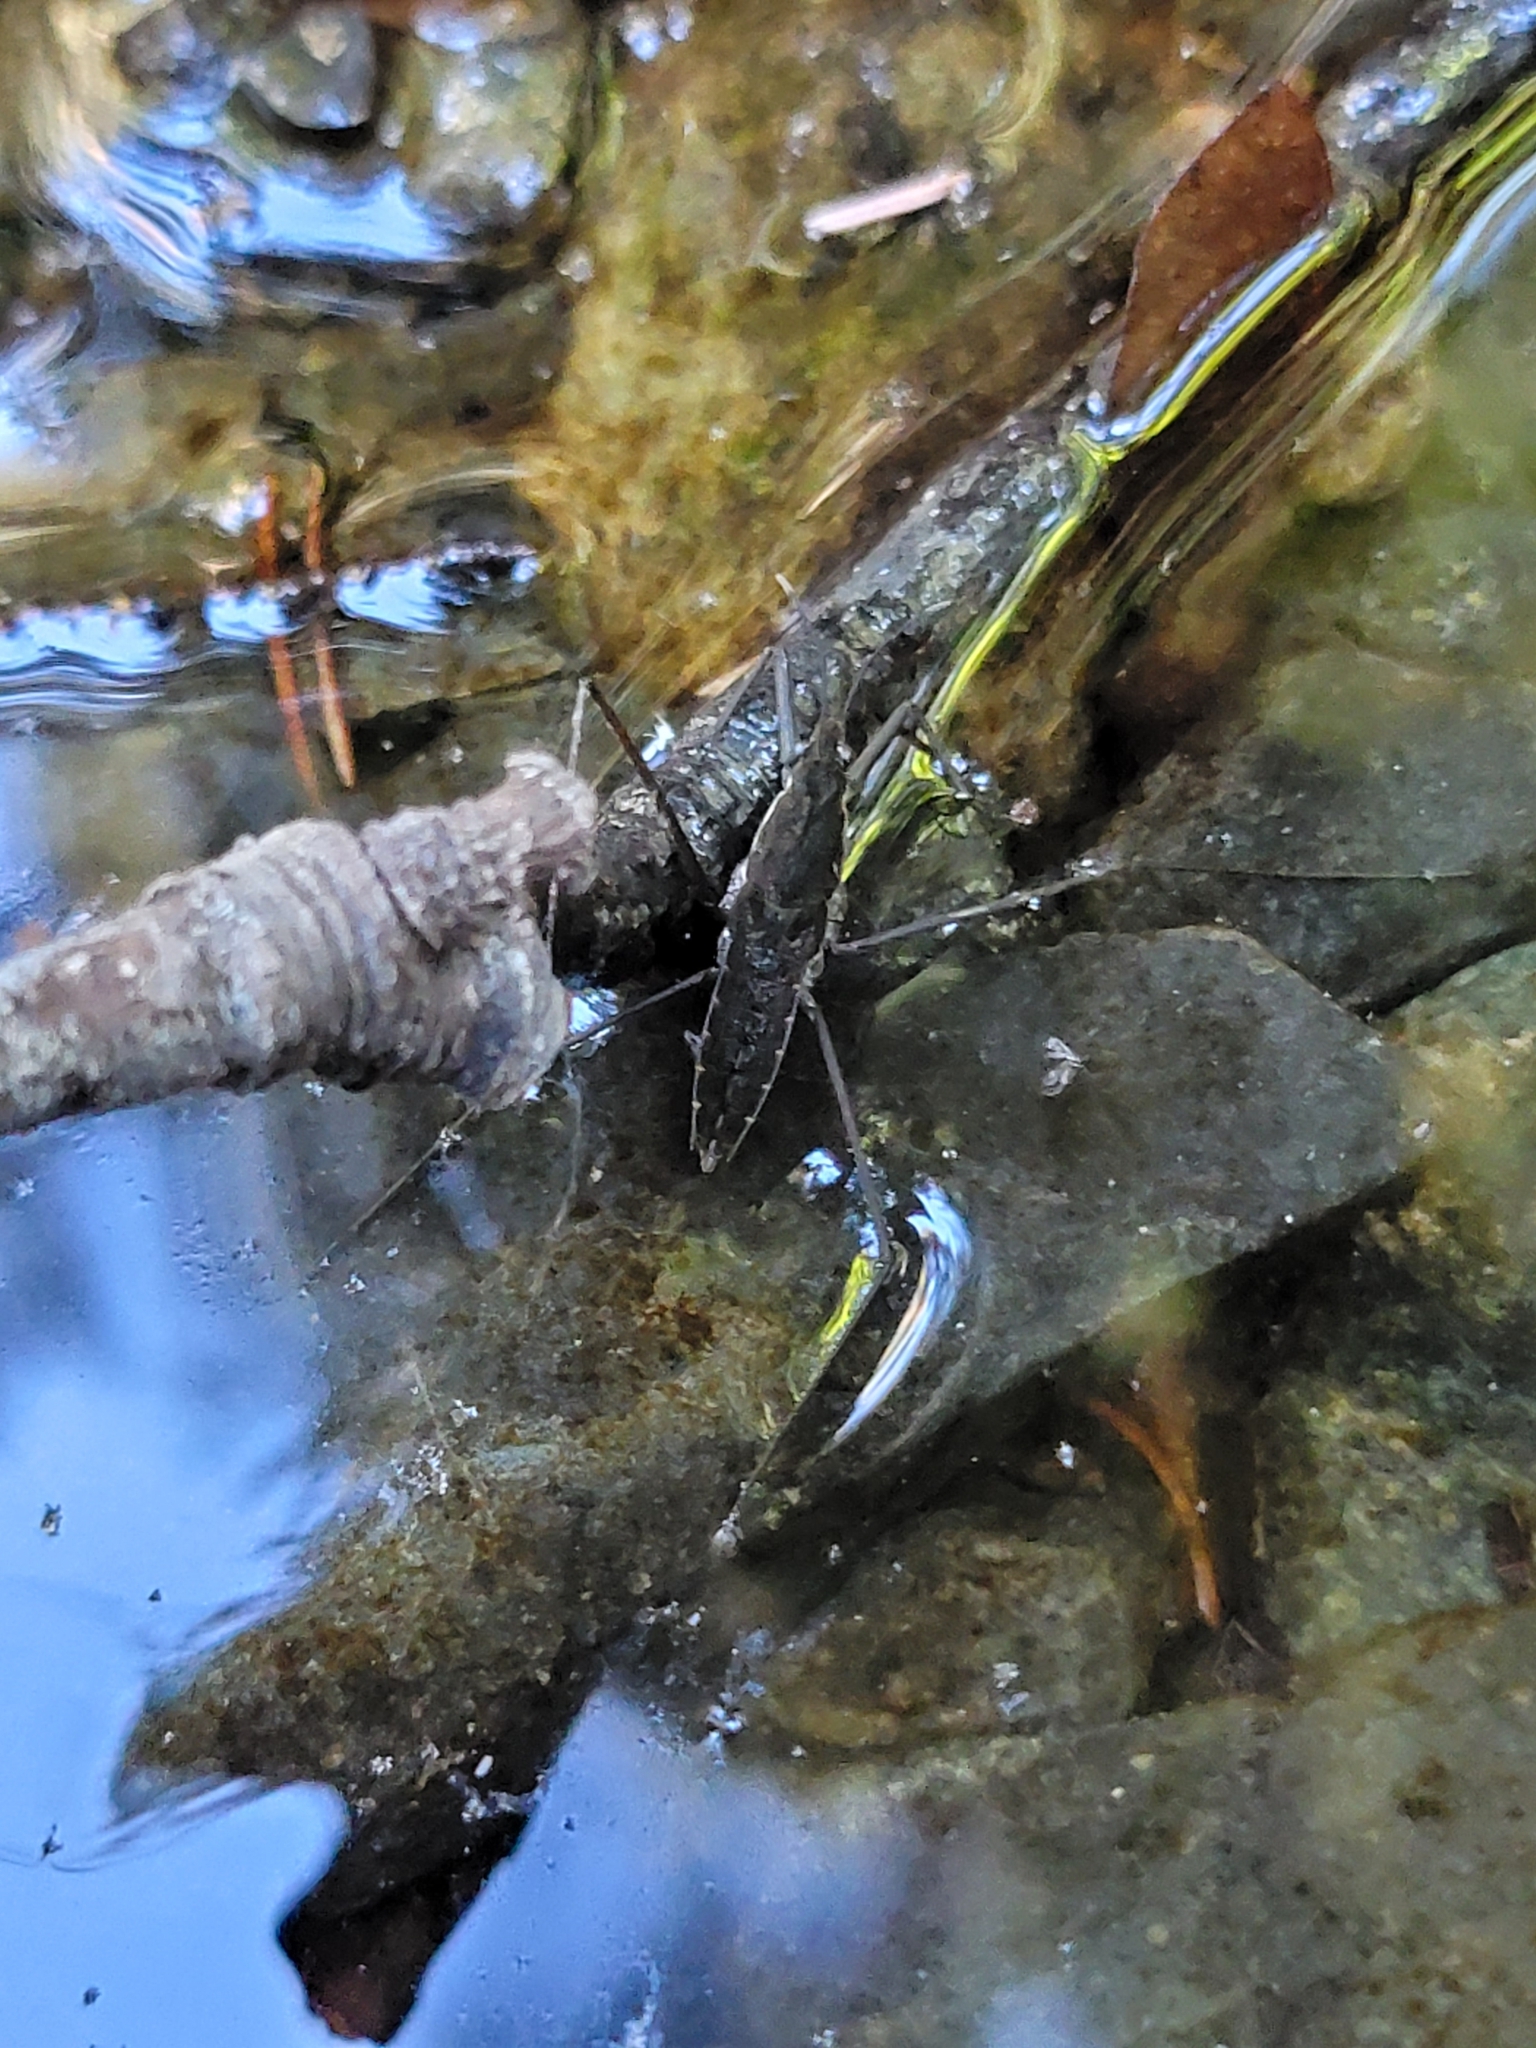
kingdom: Animalia
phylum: Arthropoda
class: Insecta
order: Hemiptera
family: Gerridae
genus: Aquarius
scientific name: Aquarius remigis
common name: Common water strider
